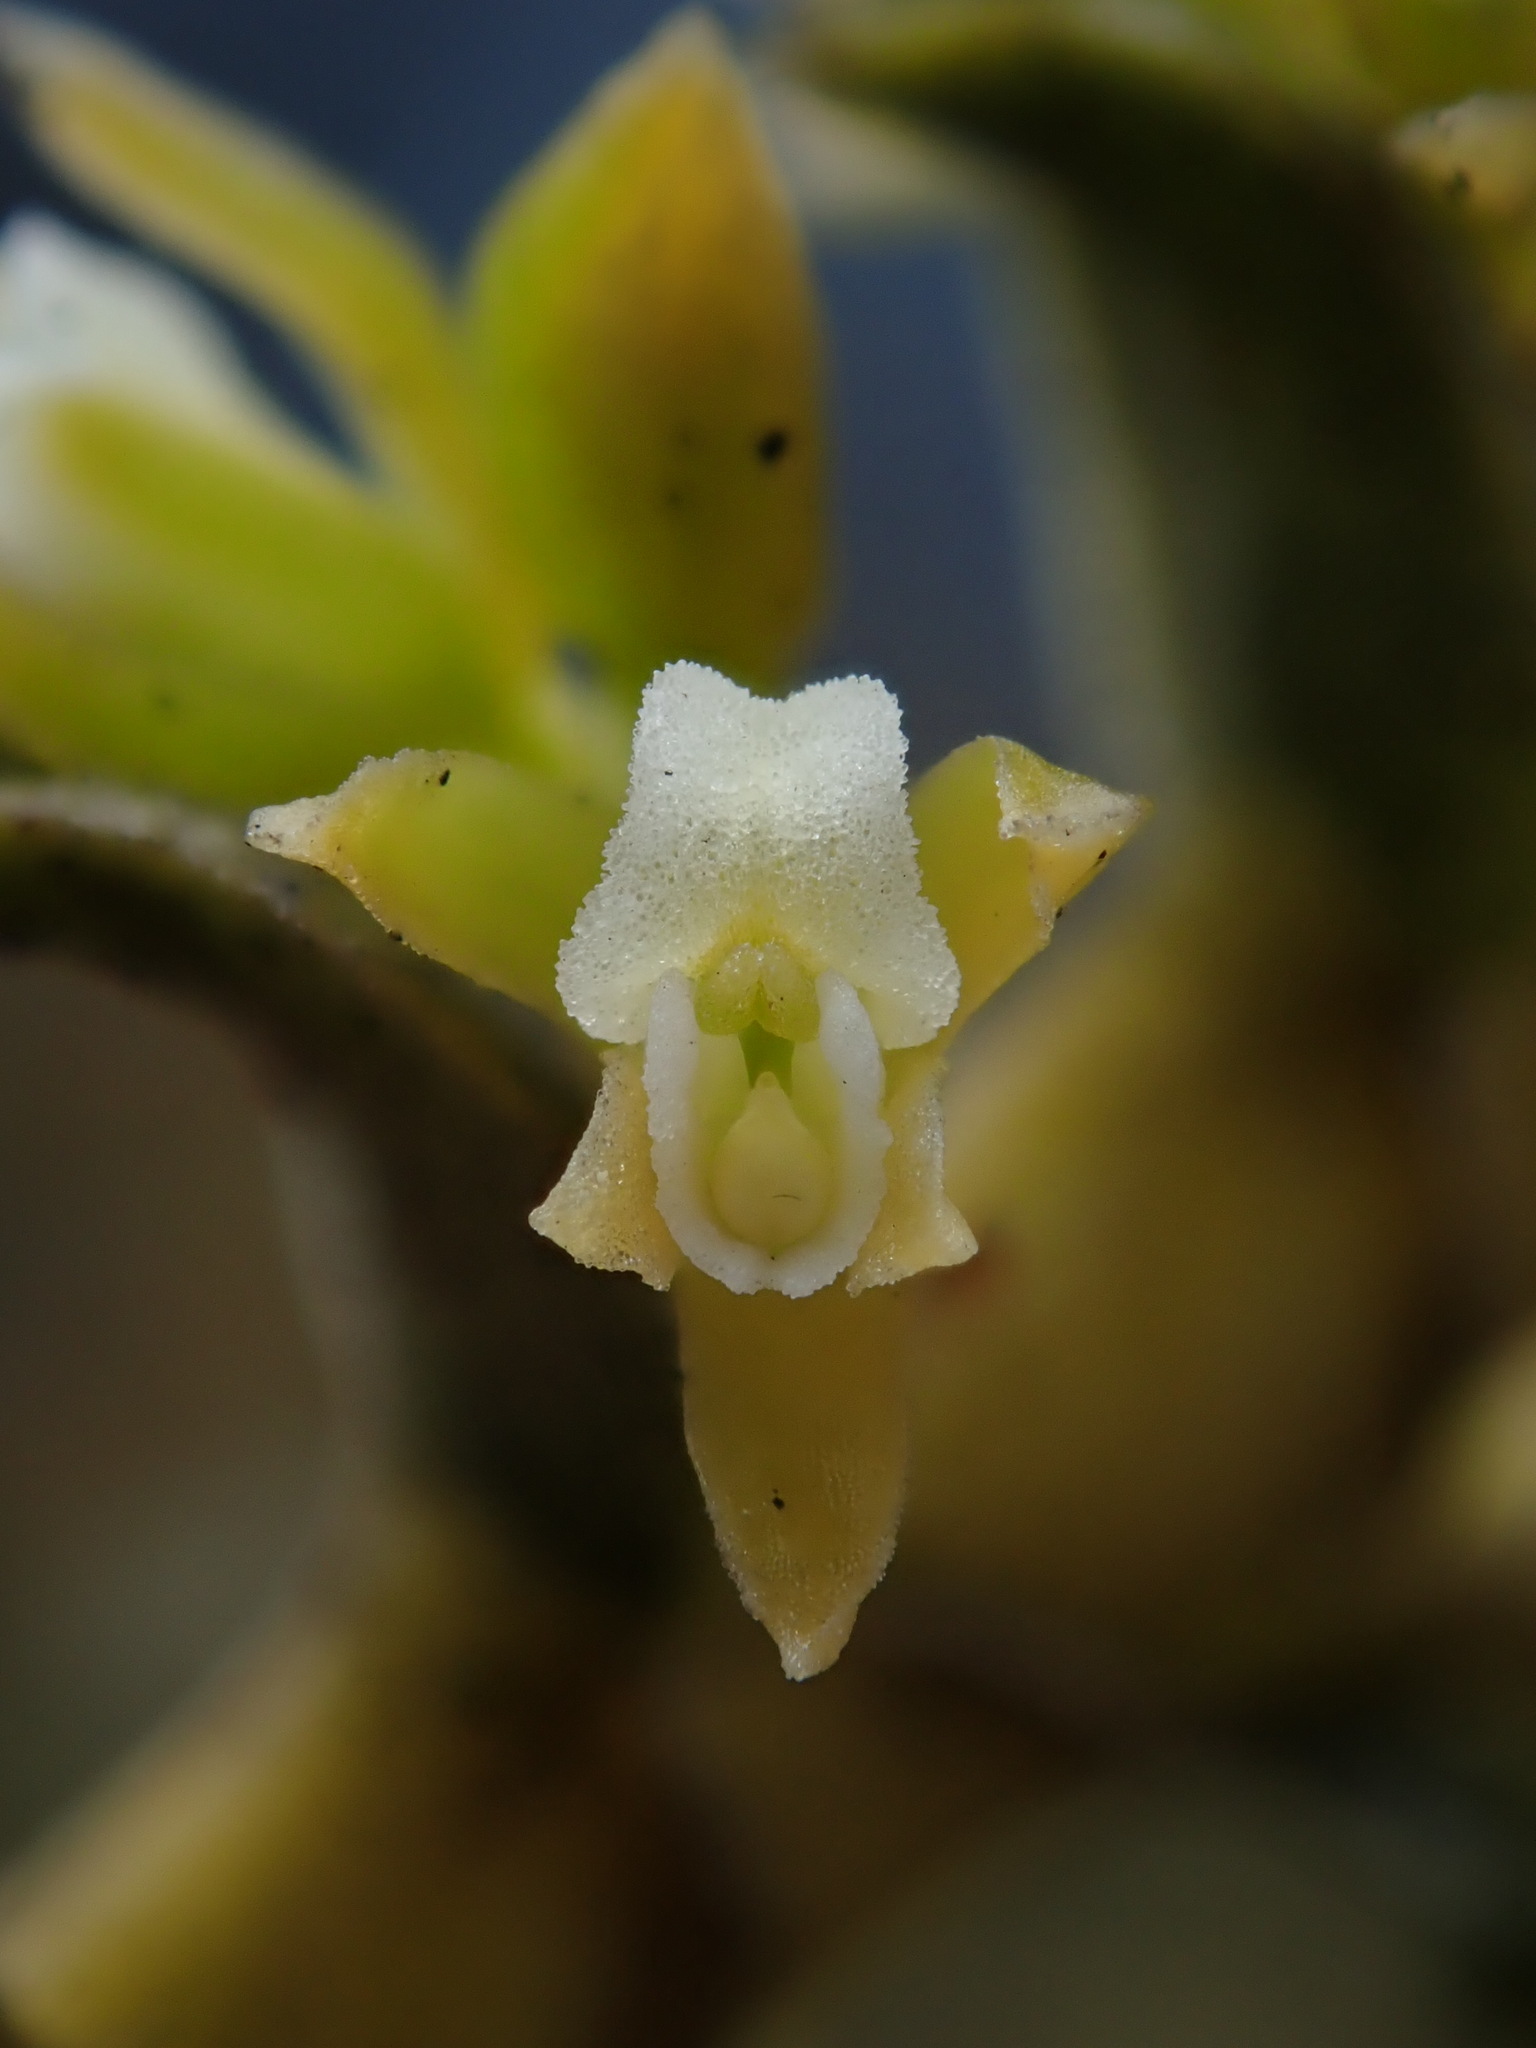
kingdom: Plantae
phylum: Tracheophyta
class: Liliopsida
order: Asparagales
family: Orchidaceae
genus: Fernandezia
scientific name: Fernandezia crystallina
